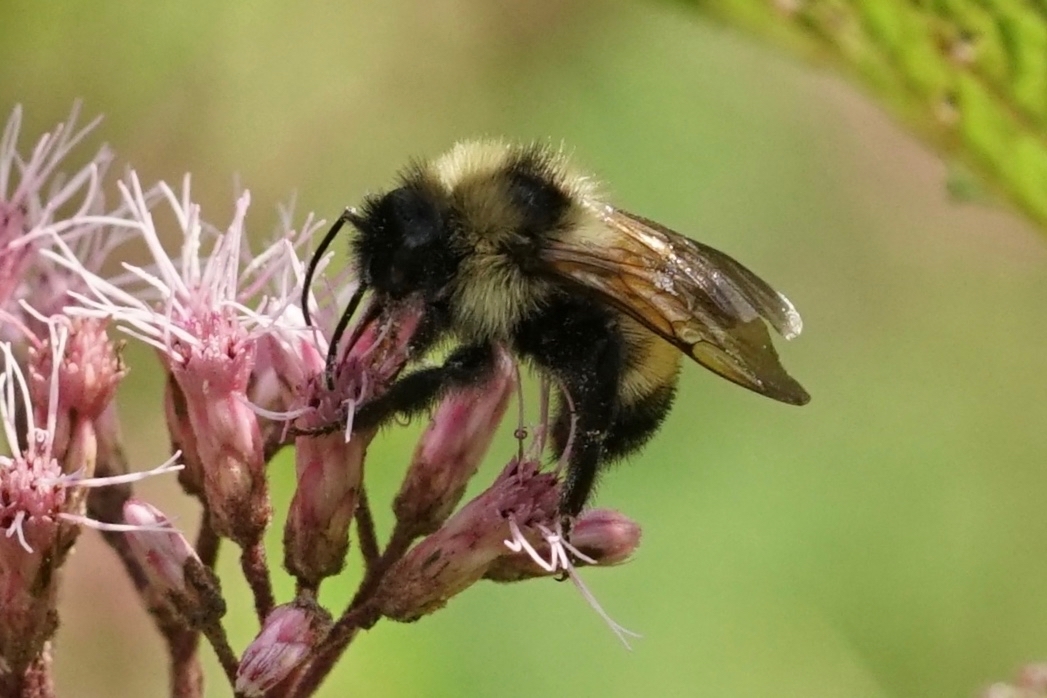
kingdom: Animalia
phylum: Arthropoda
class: Insecta
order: Hymenoptera
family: Apidae
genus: Bombus
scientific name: Bombus citrinus
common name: Lemon cuckoo bumble bee
